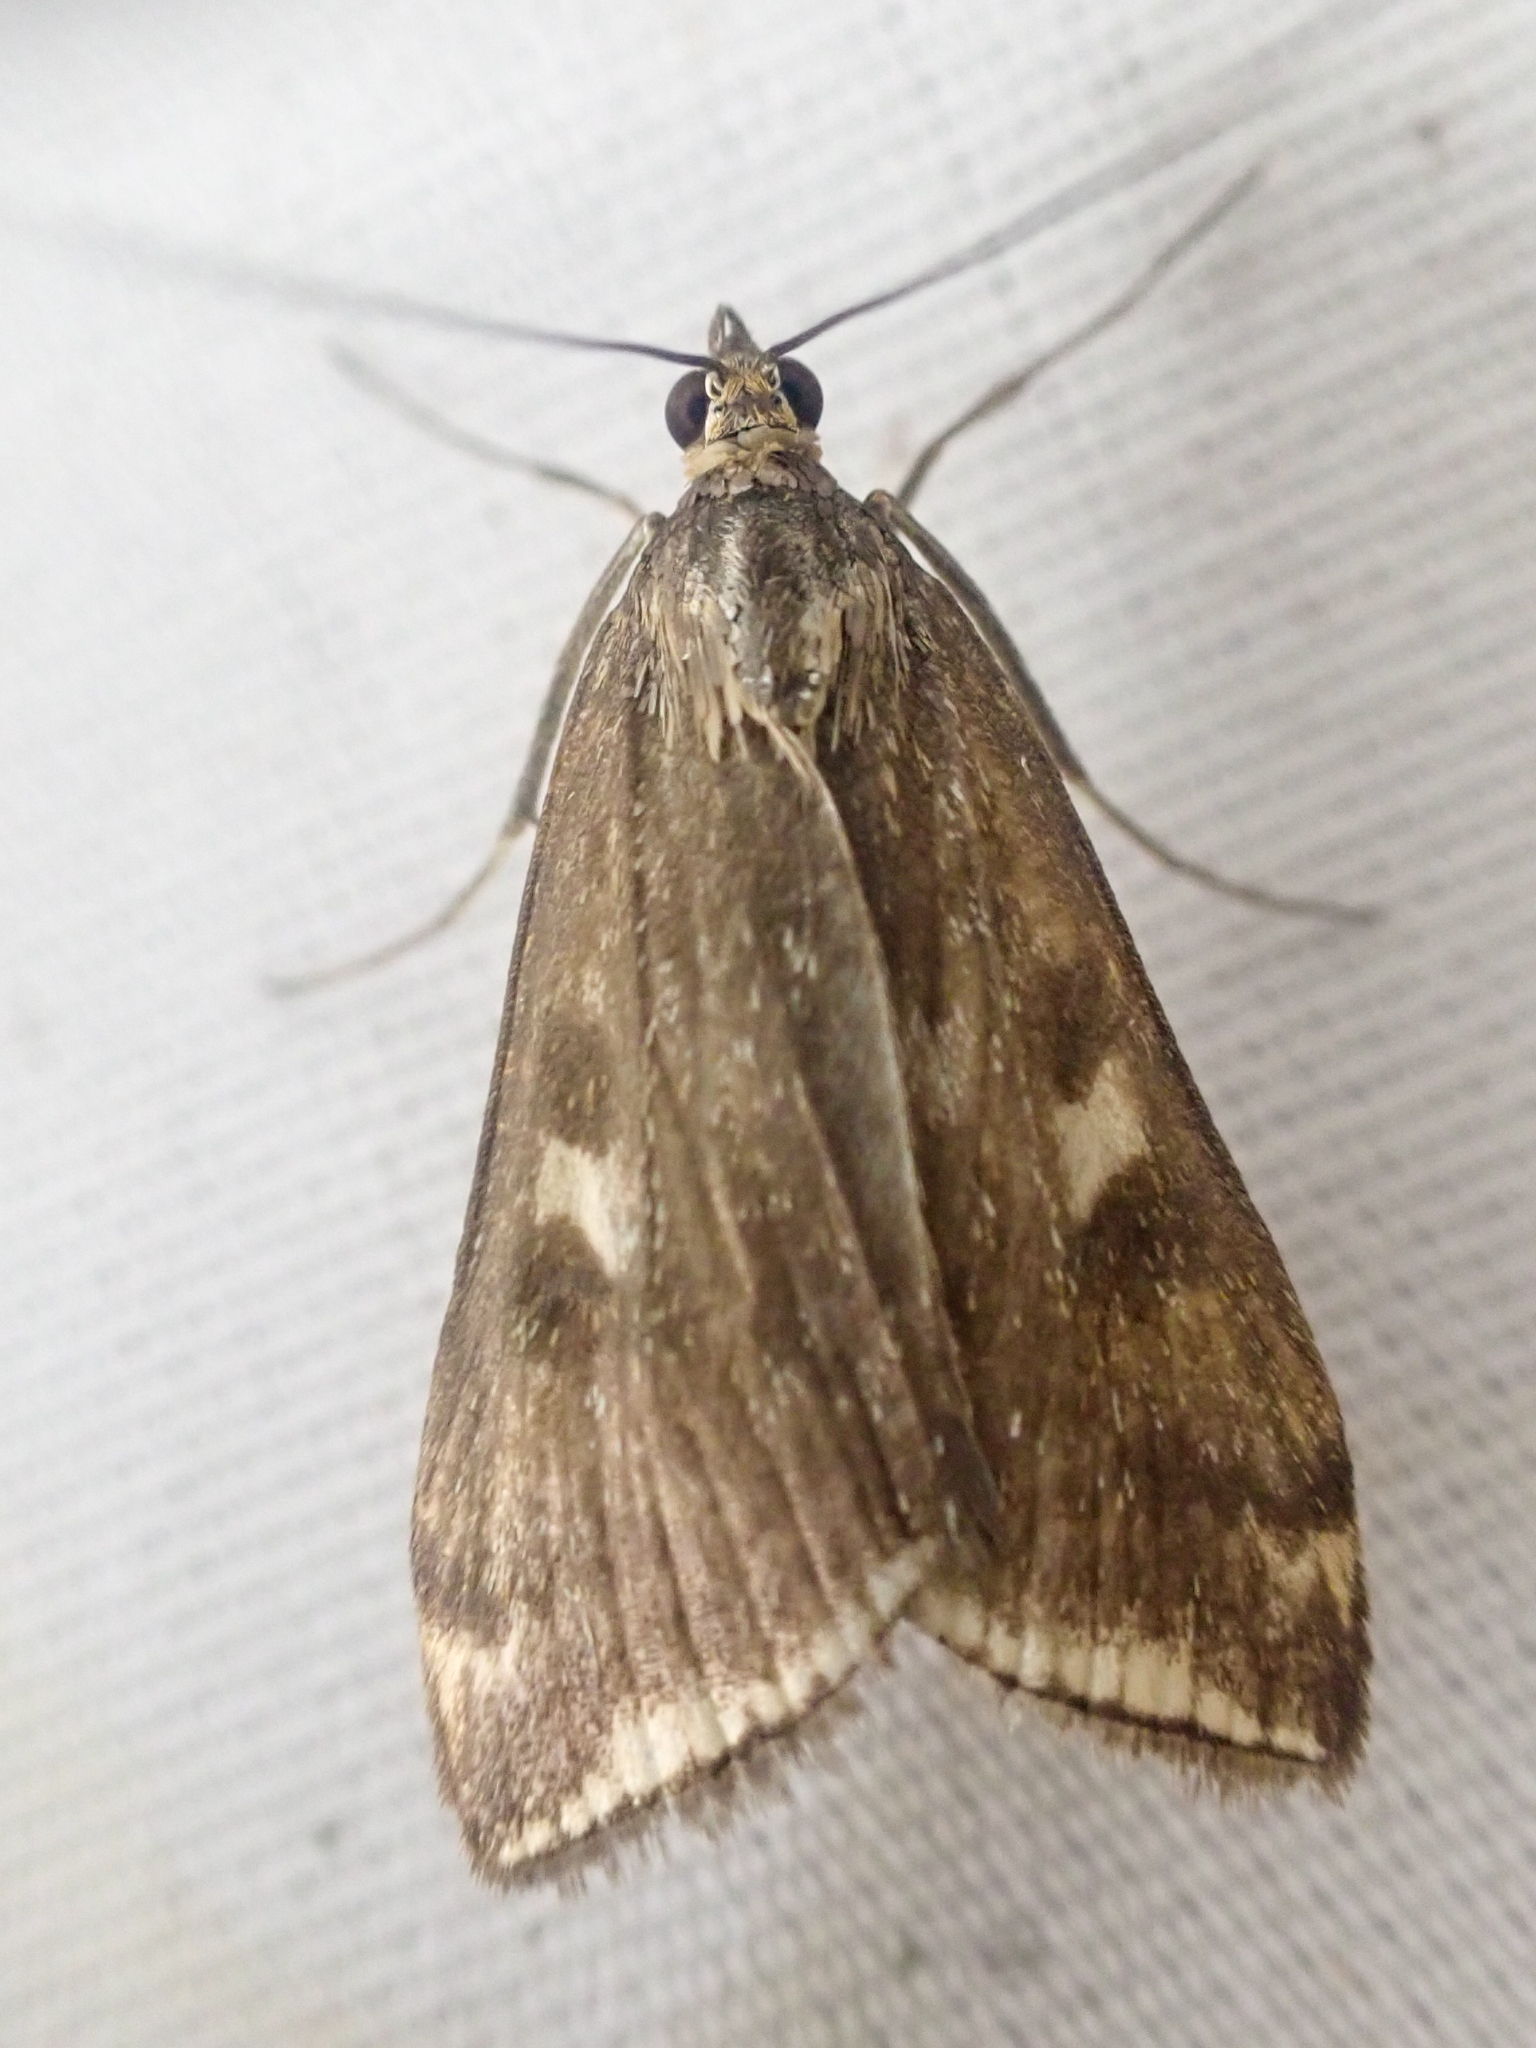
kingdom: Animalia
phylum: Arthropoda
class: Insecta
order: Lepidoptera
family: Crambidae
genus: Loxostege
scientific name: Loxostege
